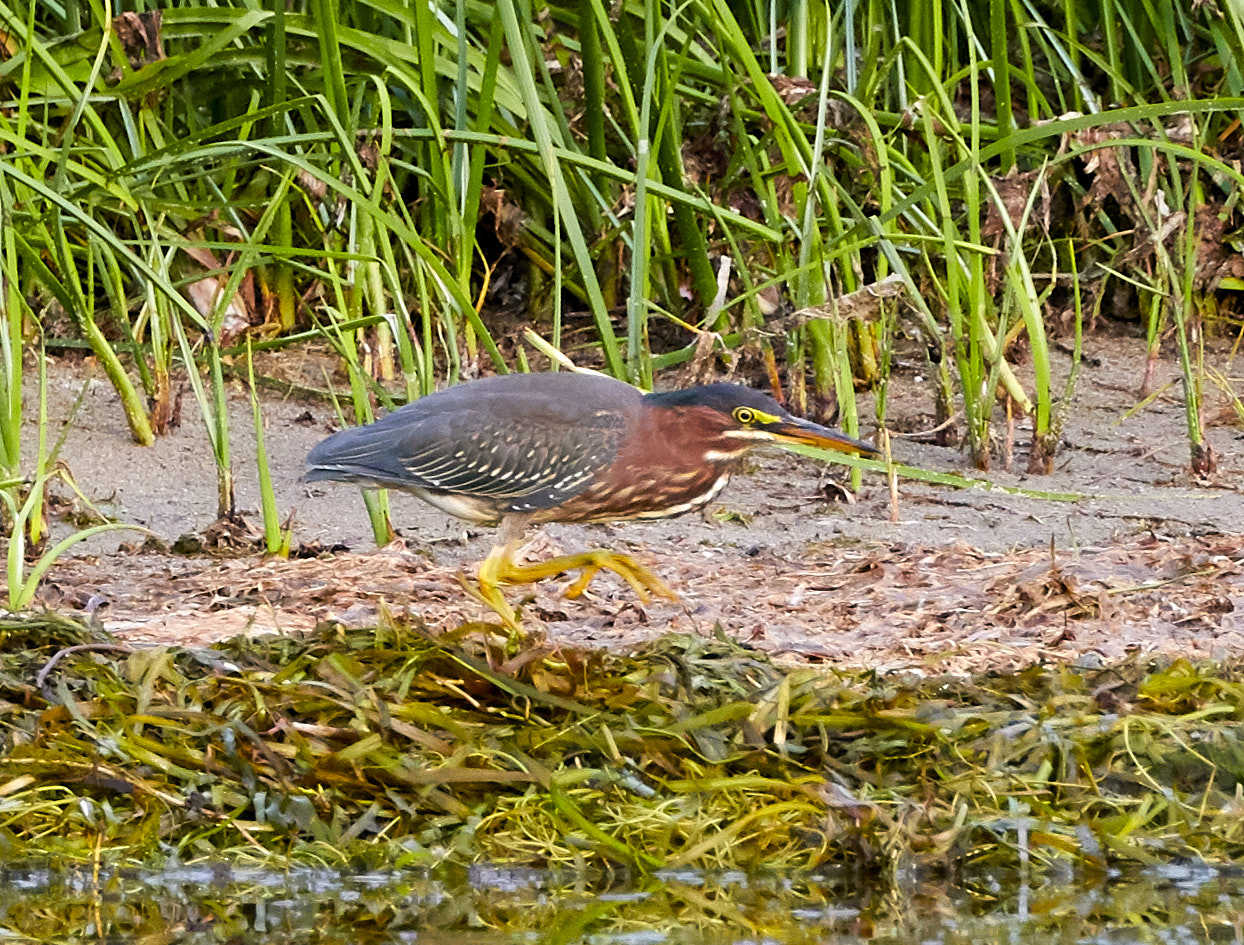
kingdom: Animalia
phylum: Chordata
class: Aves
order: Pelecaniformes
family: Ardeidae
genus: Butorides
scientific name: Butorides virescens
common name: Green heron
